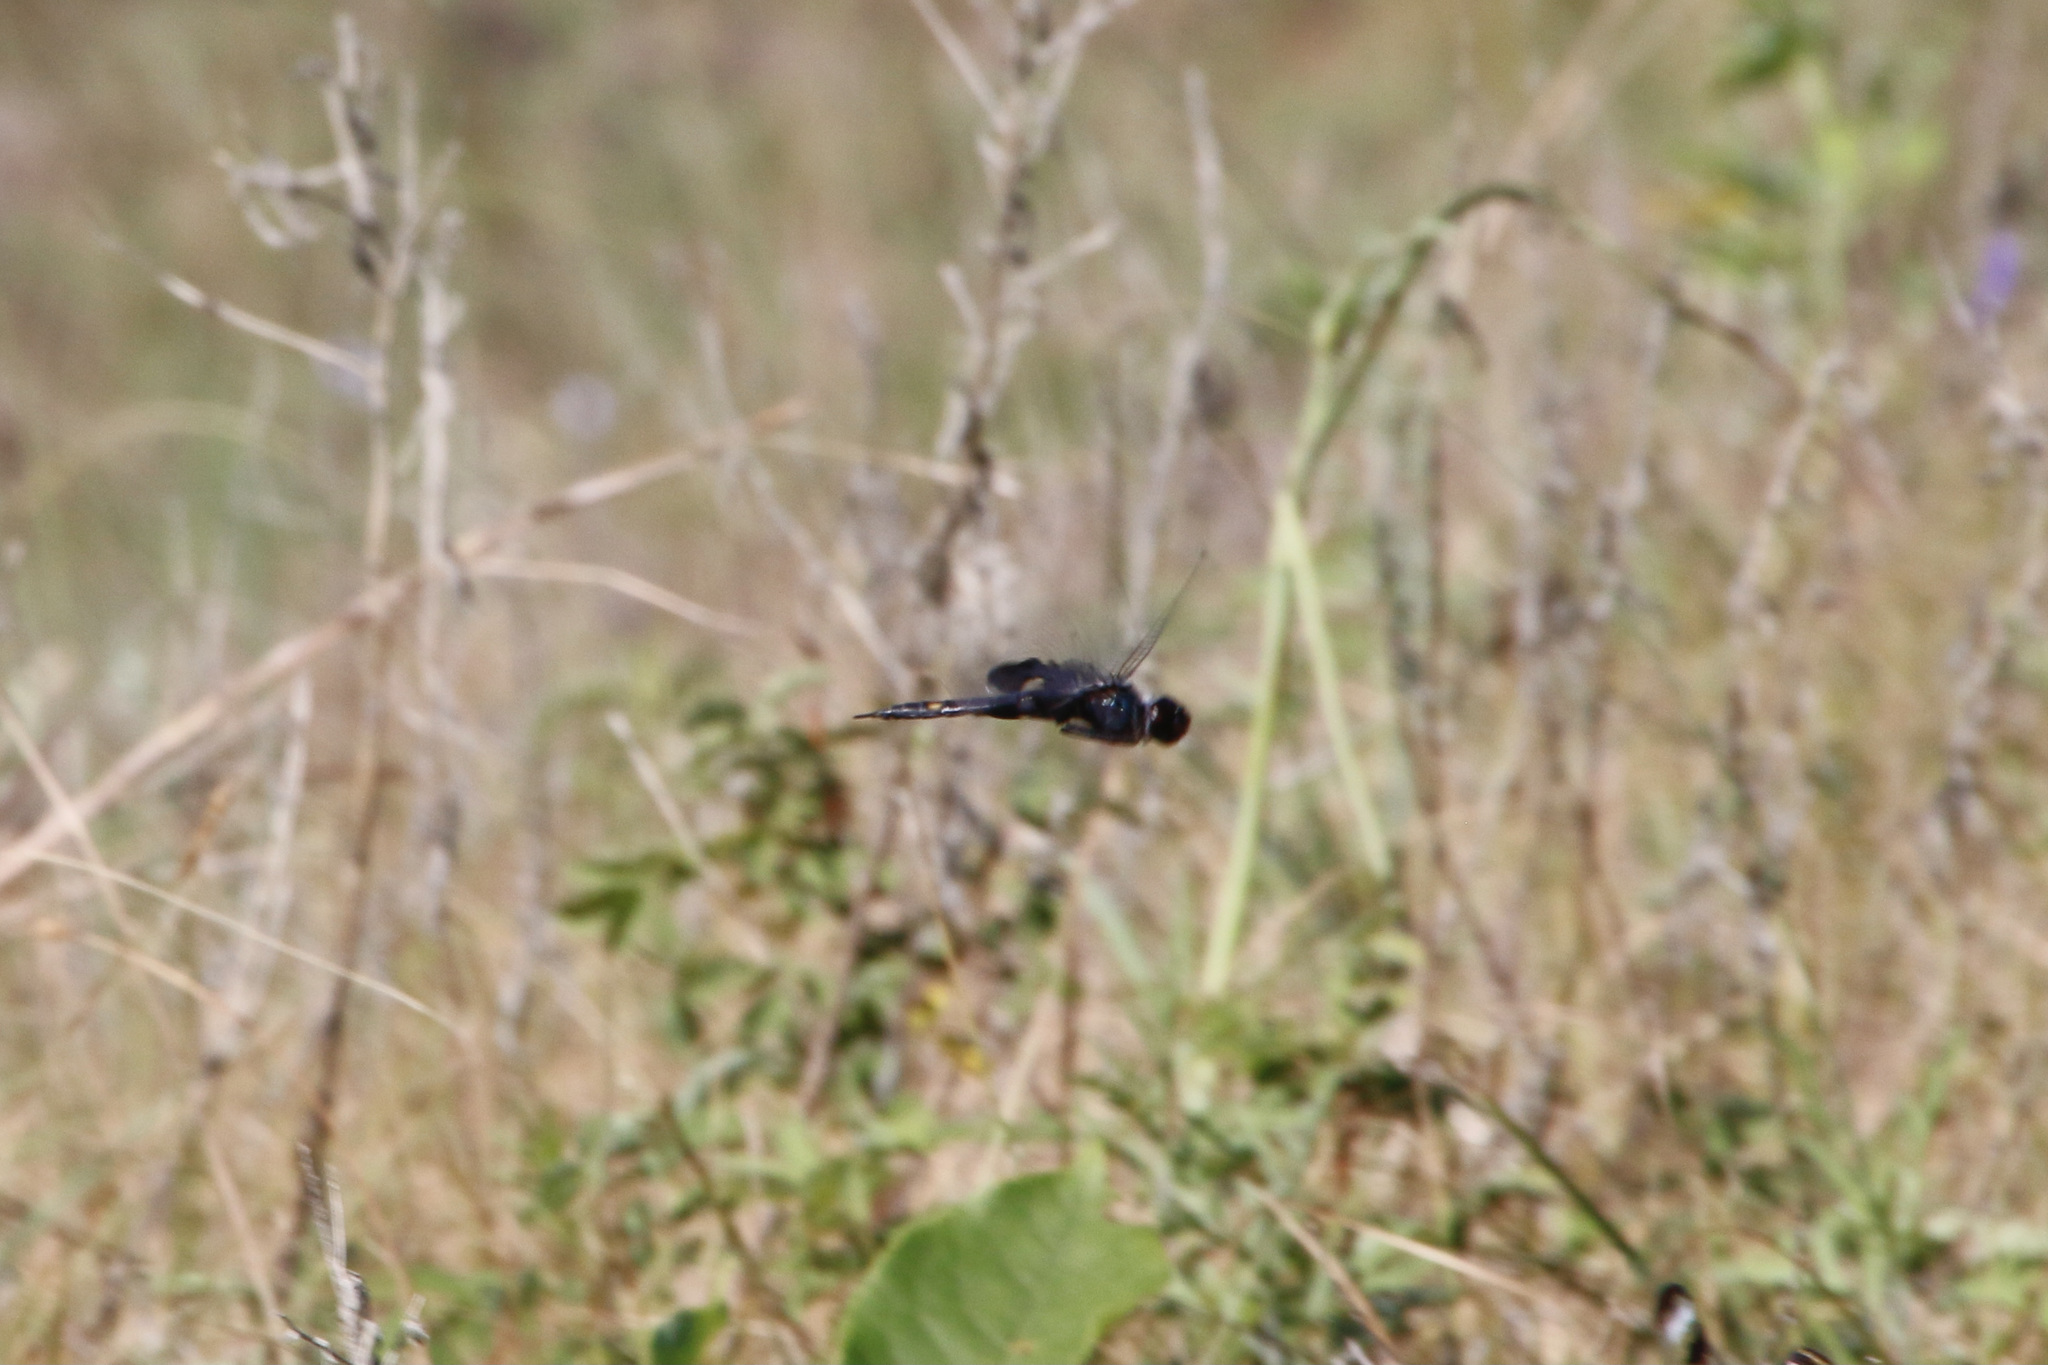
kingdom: Animalia
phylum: Arthropoda
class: Insecta
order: Odonata
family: Libellulidae
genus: Tramea
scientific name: Tramea lacerata
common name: Black saddlebags
